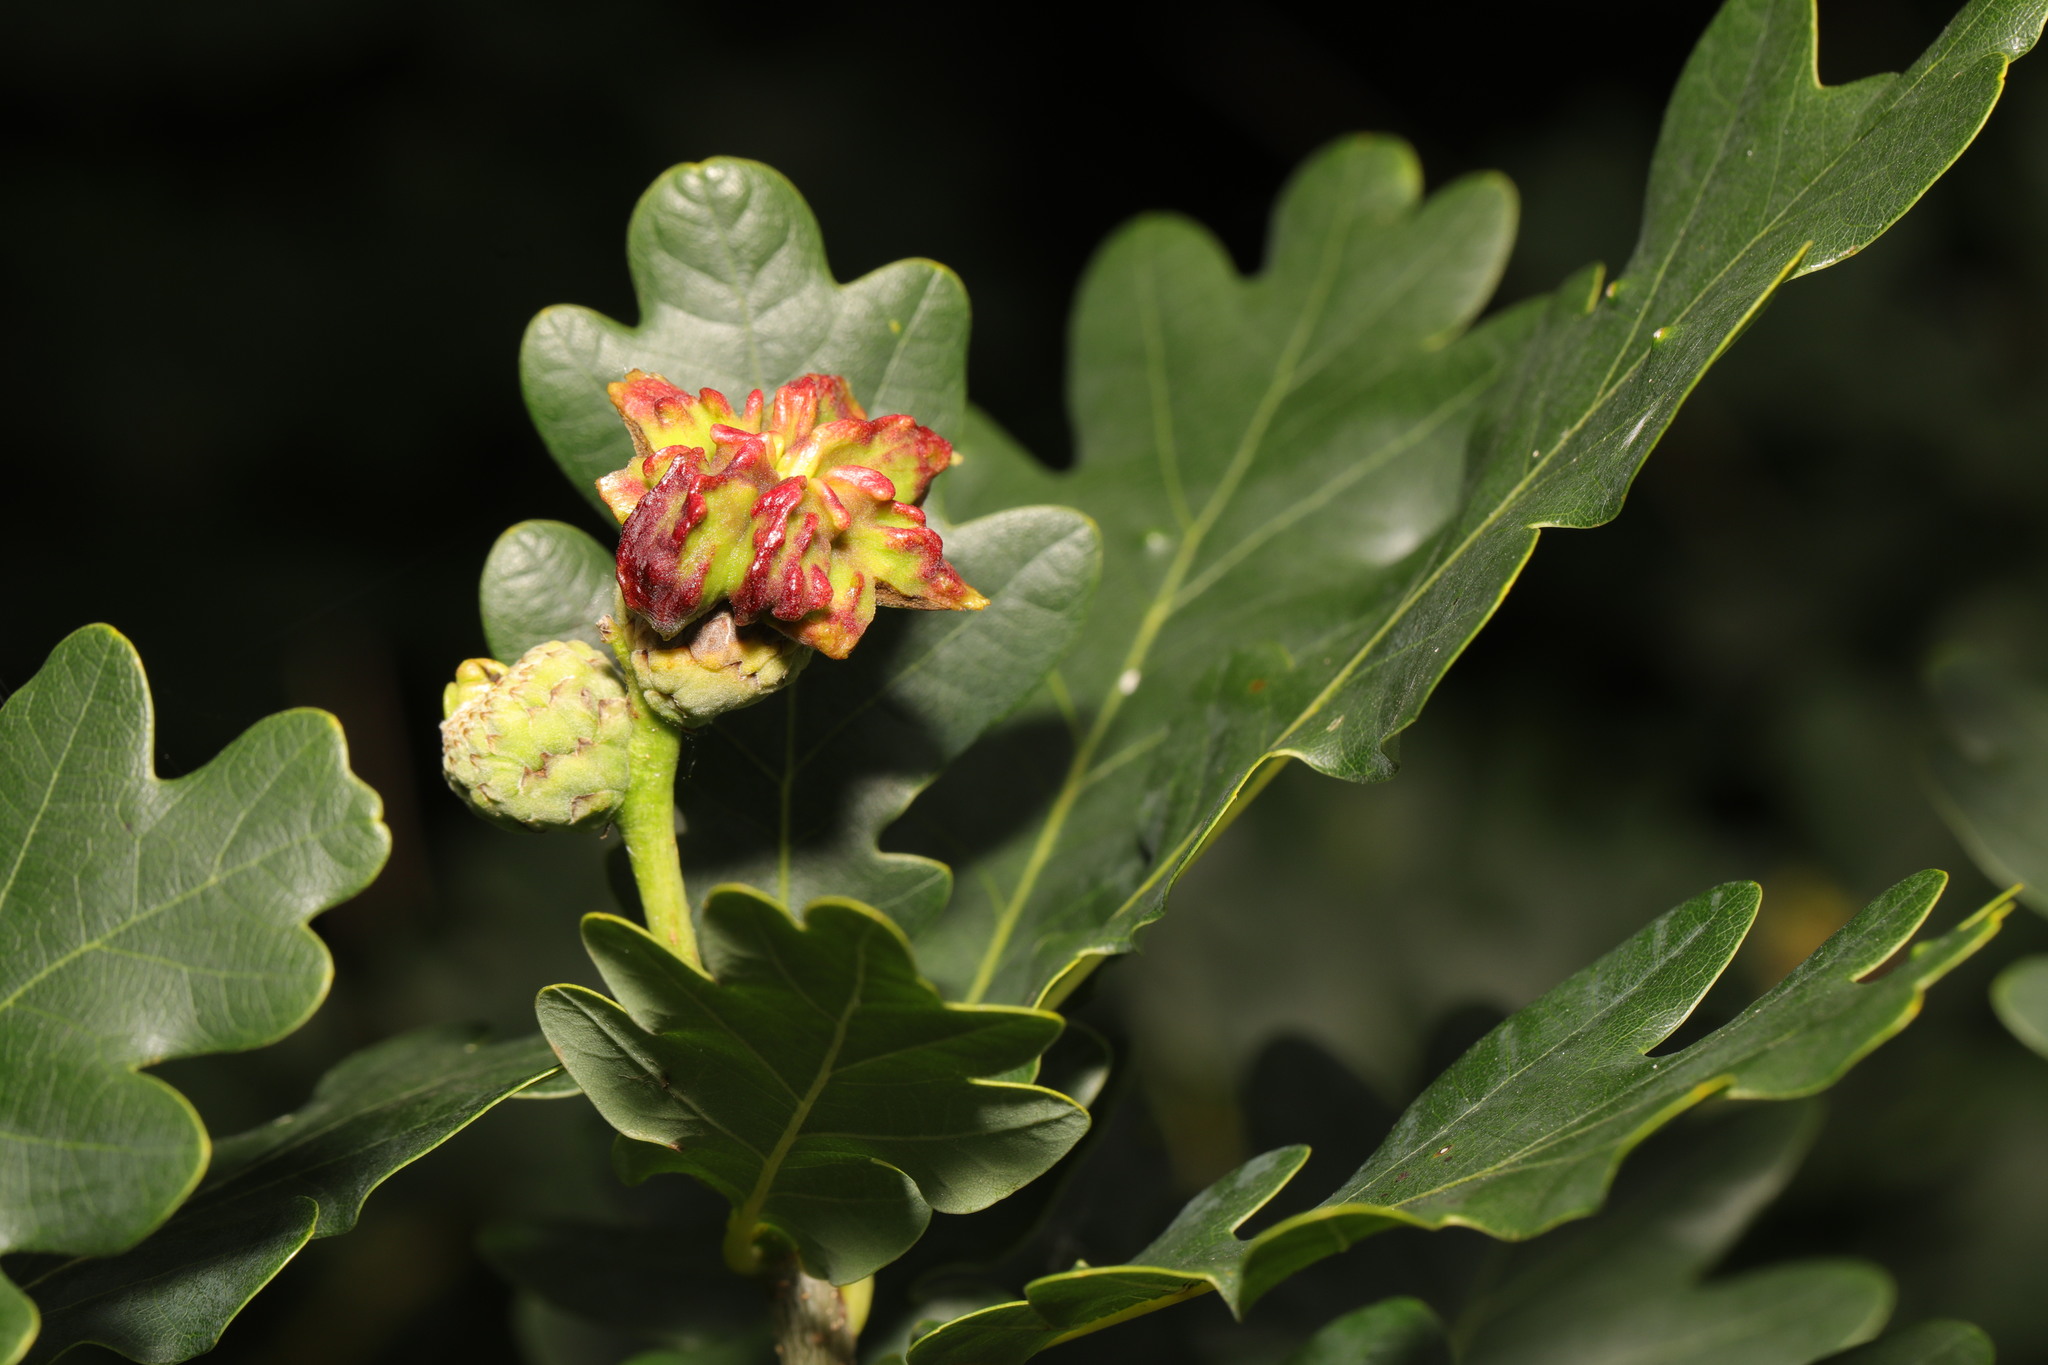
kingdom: Animalia
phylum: Arthropoda
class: Insecta
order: Hymenoptera
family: Cynipidae
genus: Andricus
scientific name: Andricus quercuscalicis
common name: Knopper gall
